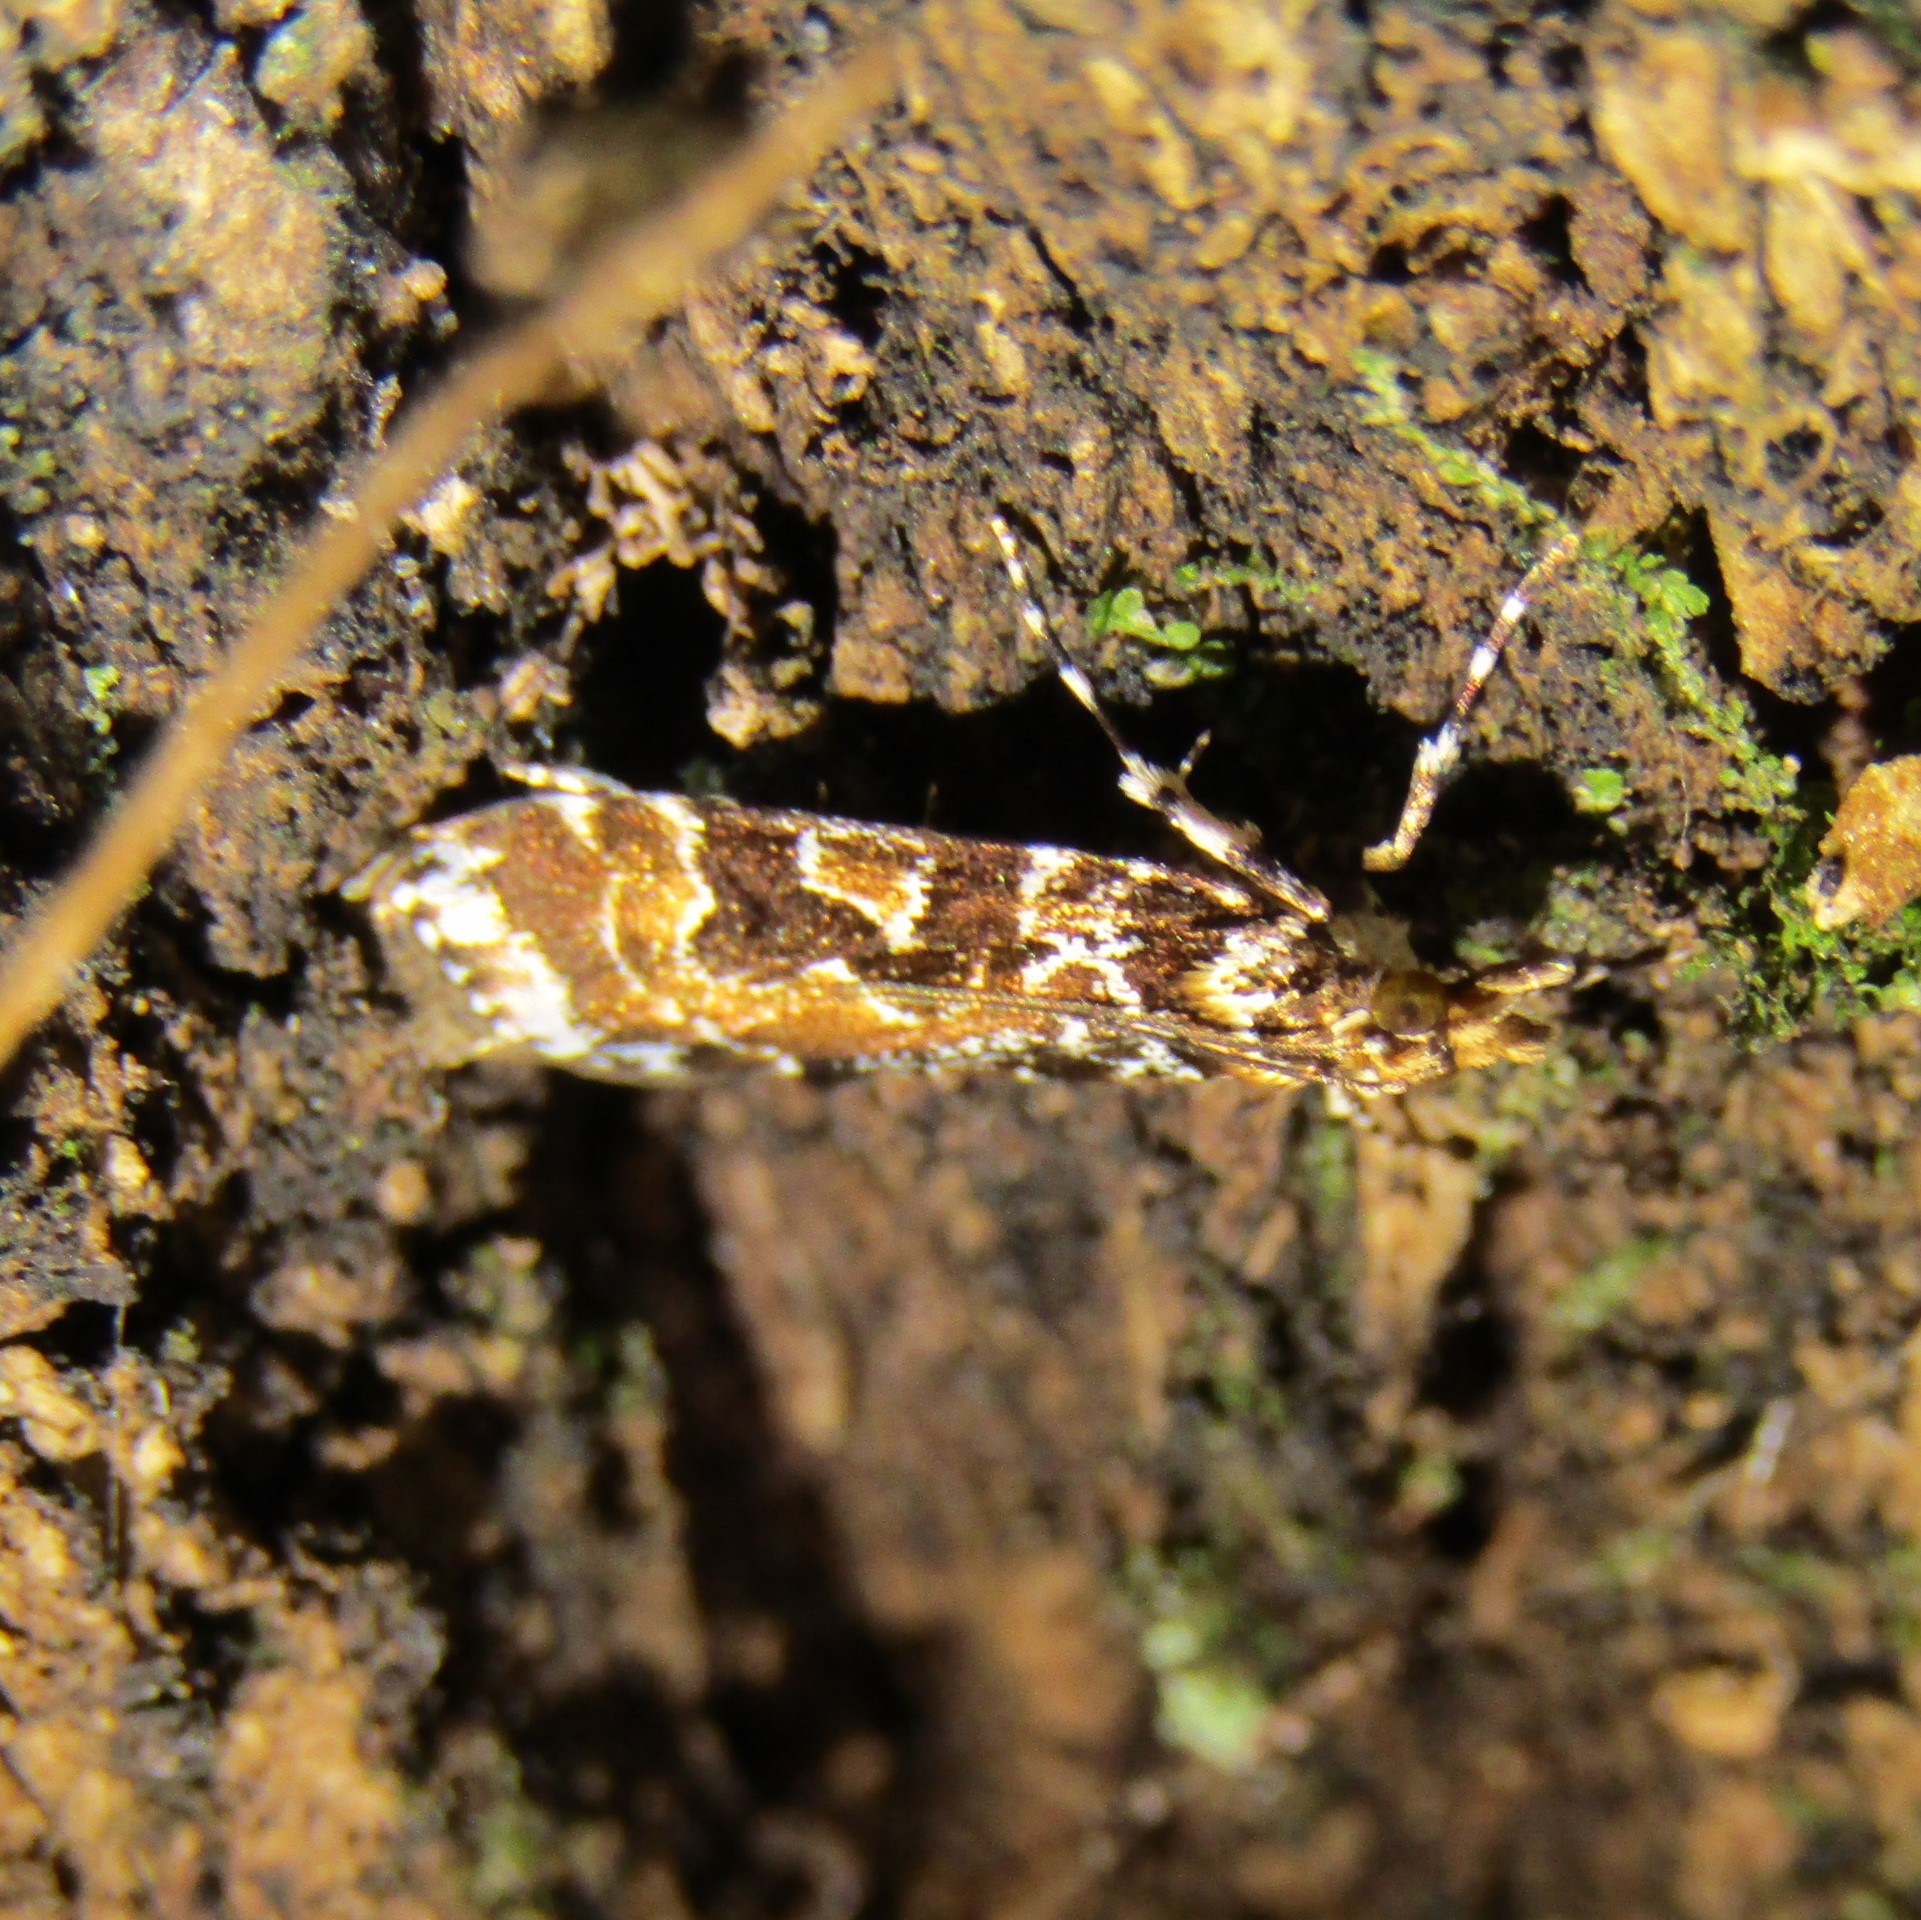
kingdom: Animalia
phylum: Arthropoda
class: Insecta
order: Lepidoptera
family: Crambidae
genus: Scoparia
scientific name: Scoparia ustimacula
